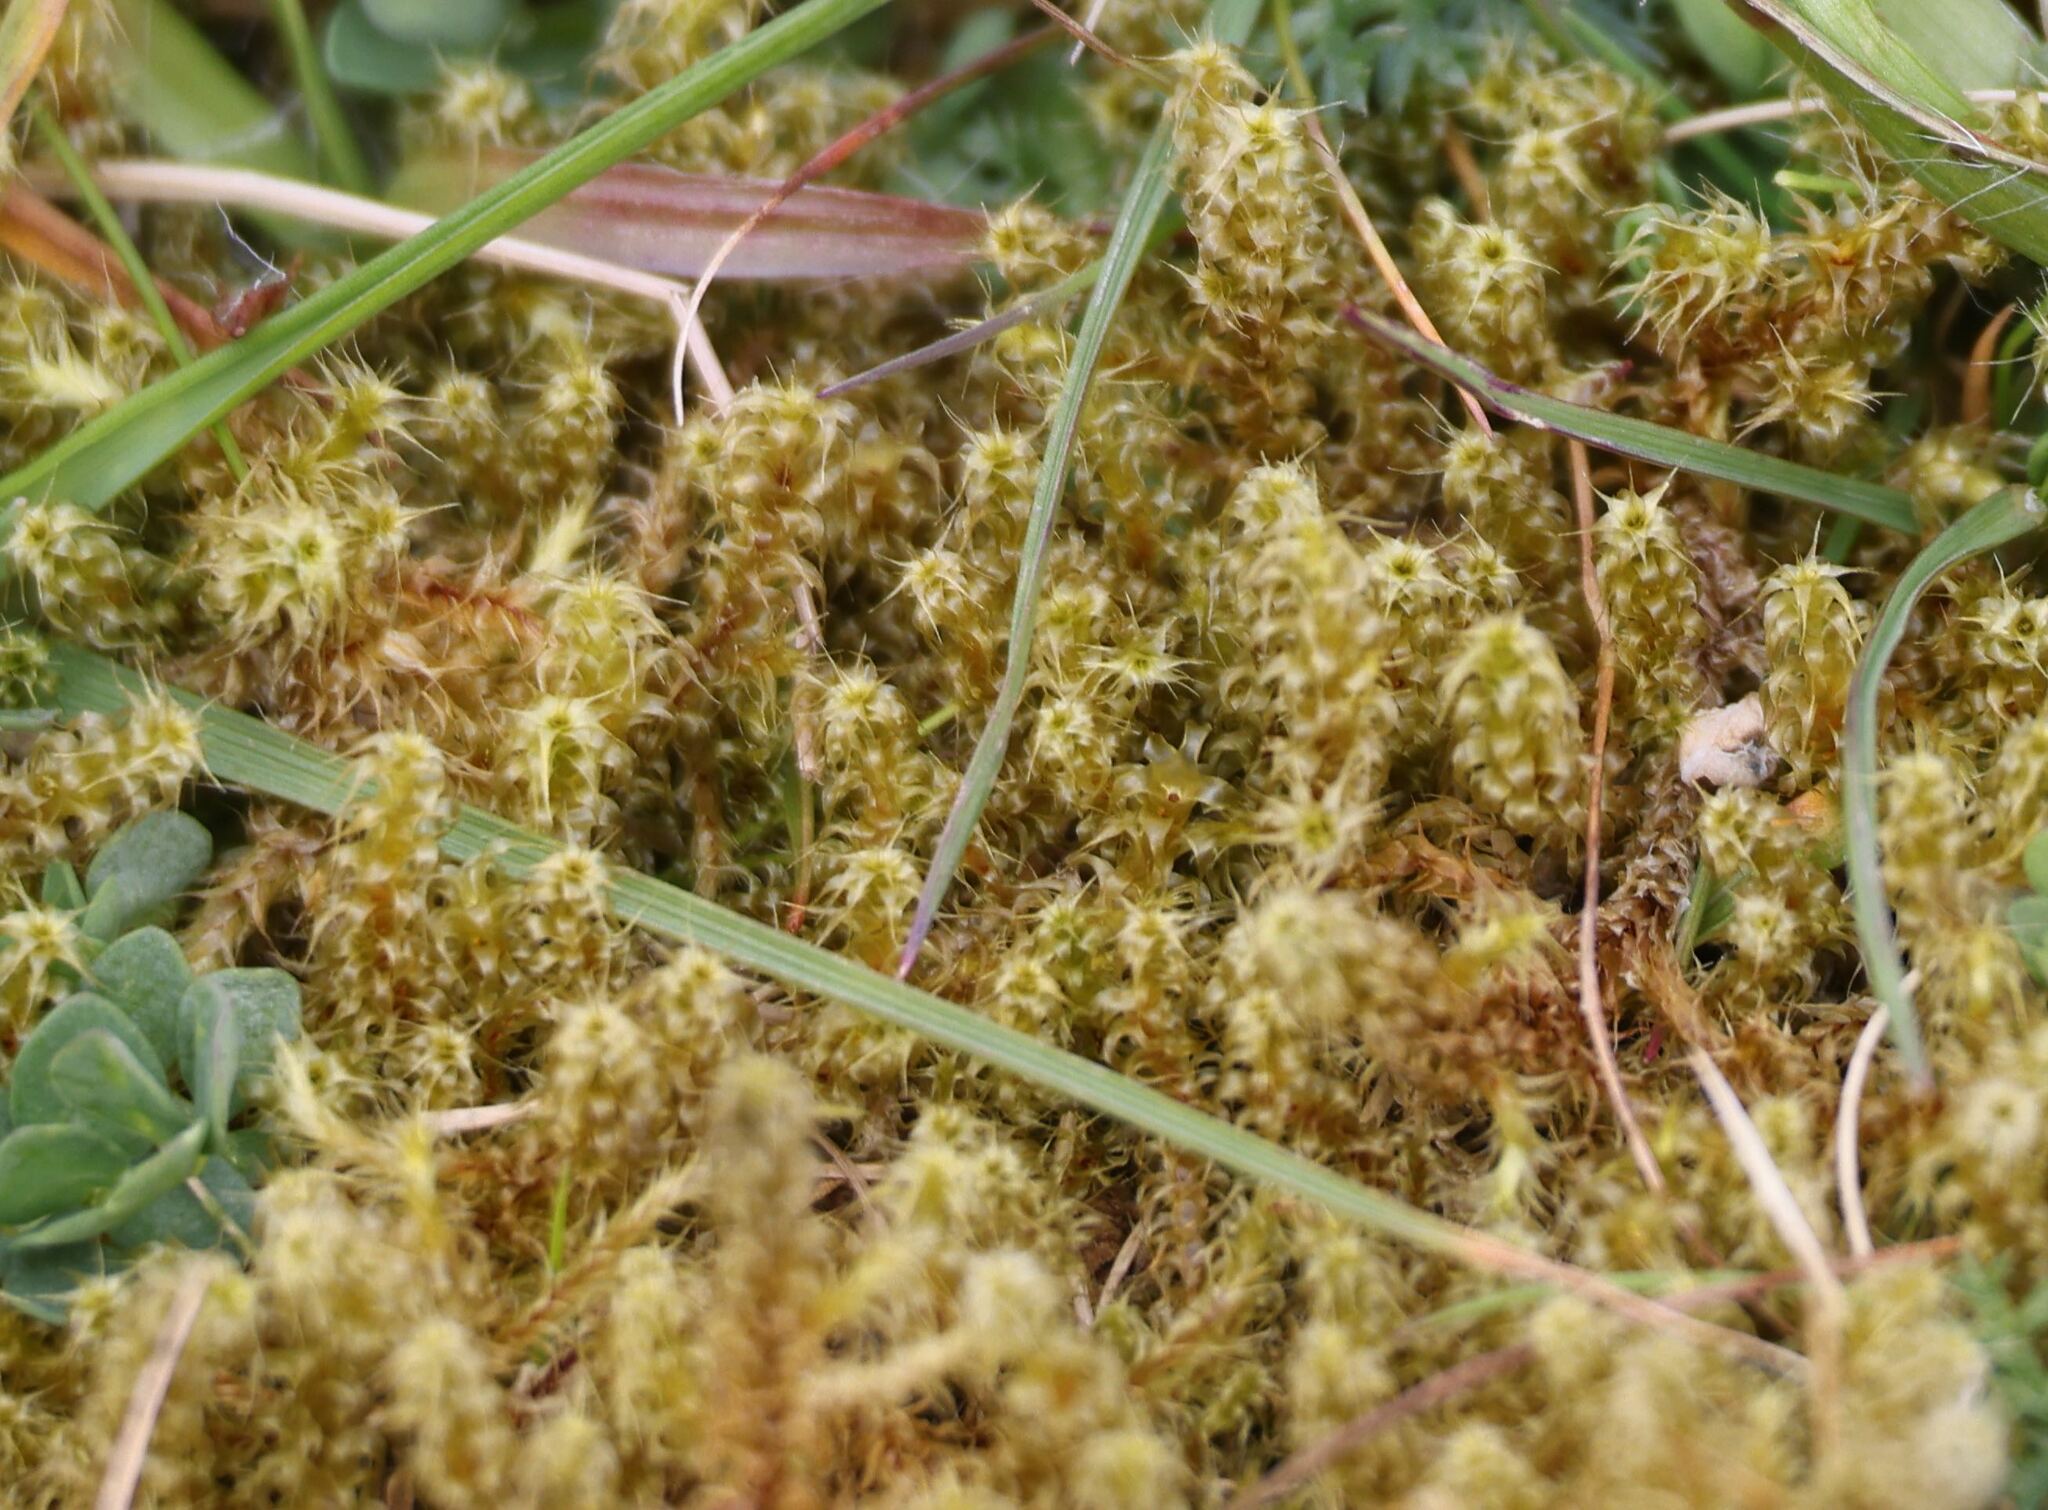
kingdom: Plantae
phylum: Bryophyta
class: Bryopsida
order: Hypnales
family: Hylocomiaceae
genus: Rhytidiadelphus
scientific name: Rhytidiadelphus squarrosus
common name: Springy turf-moss
